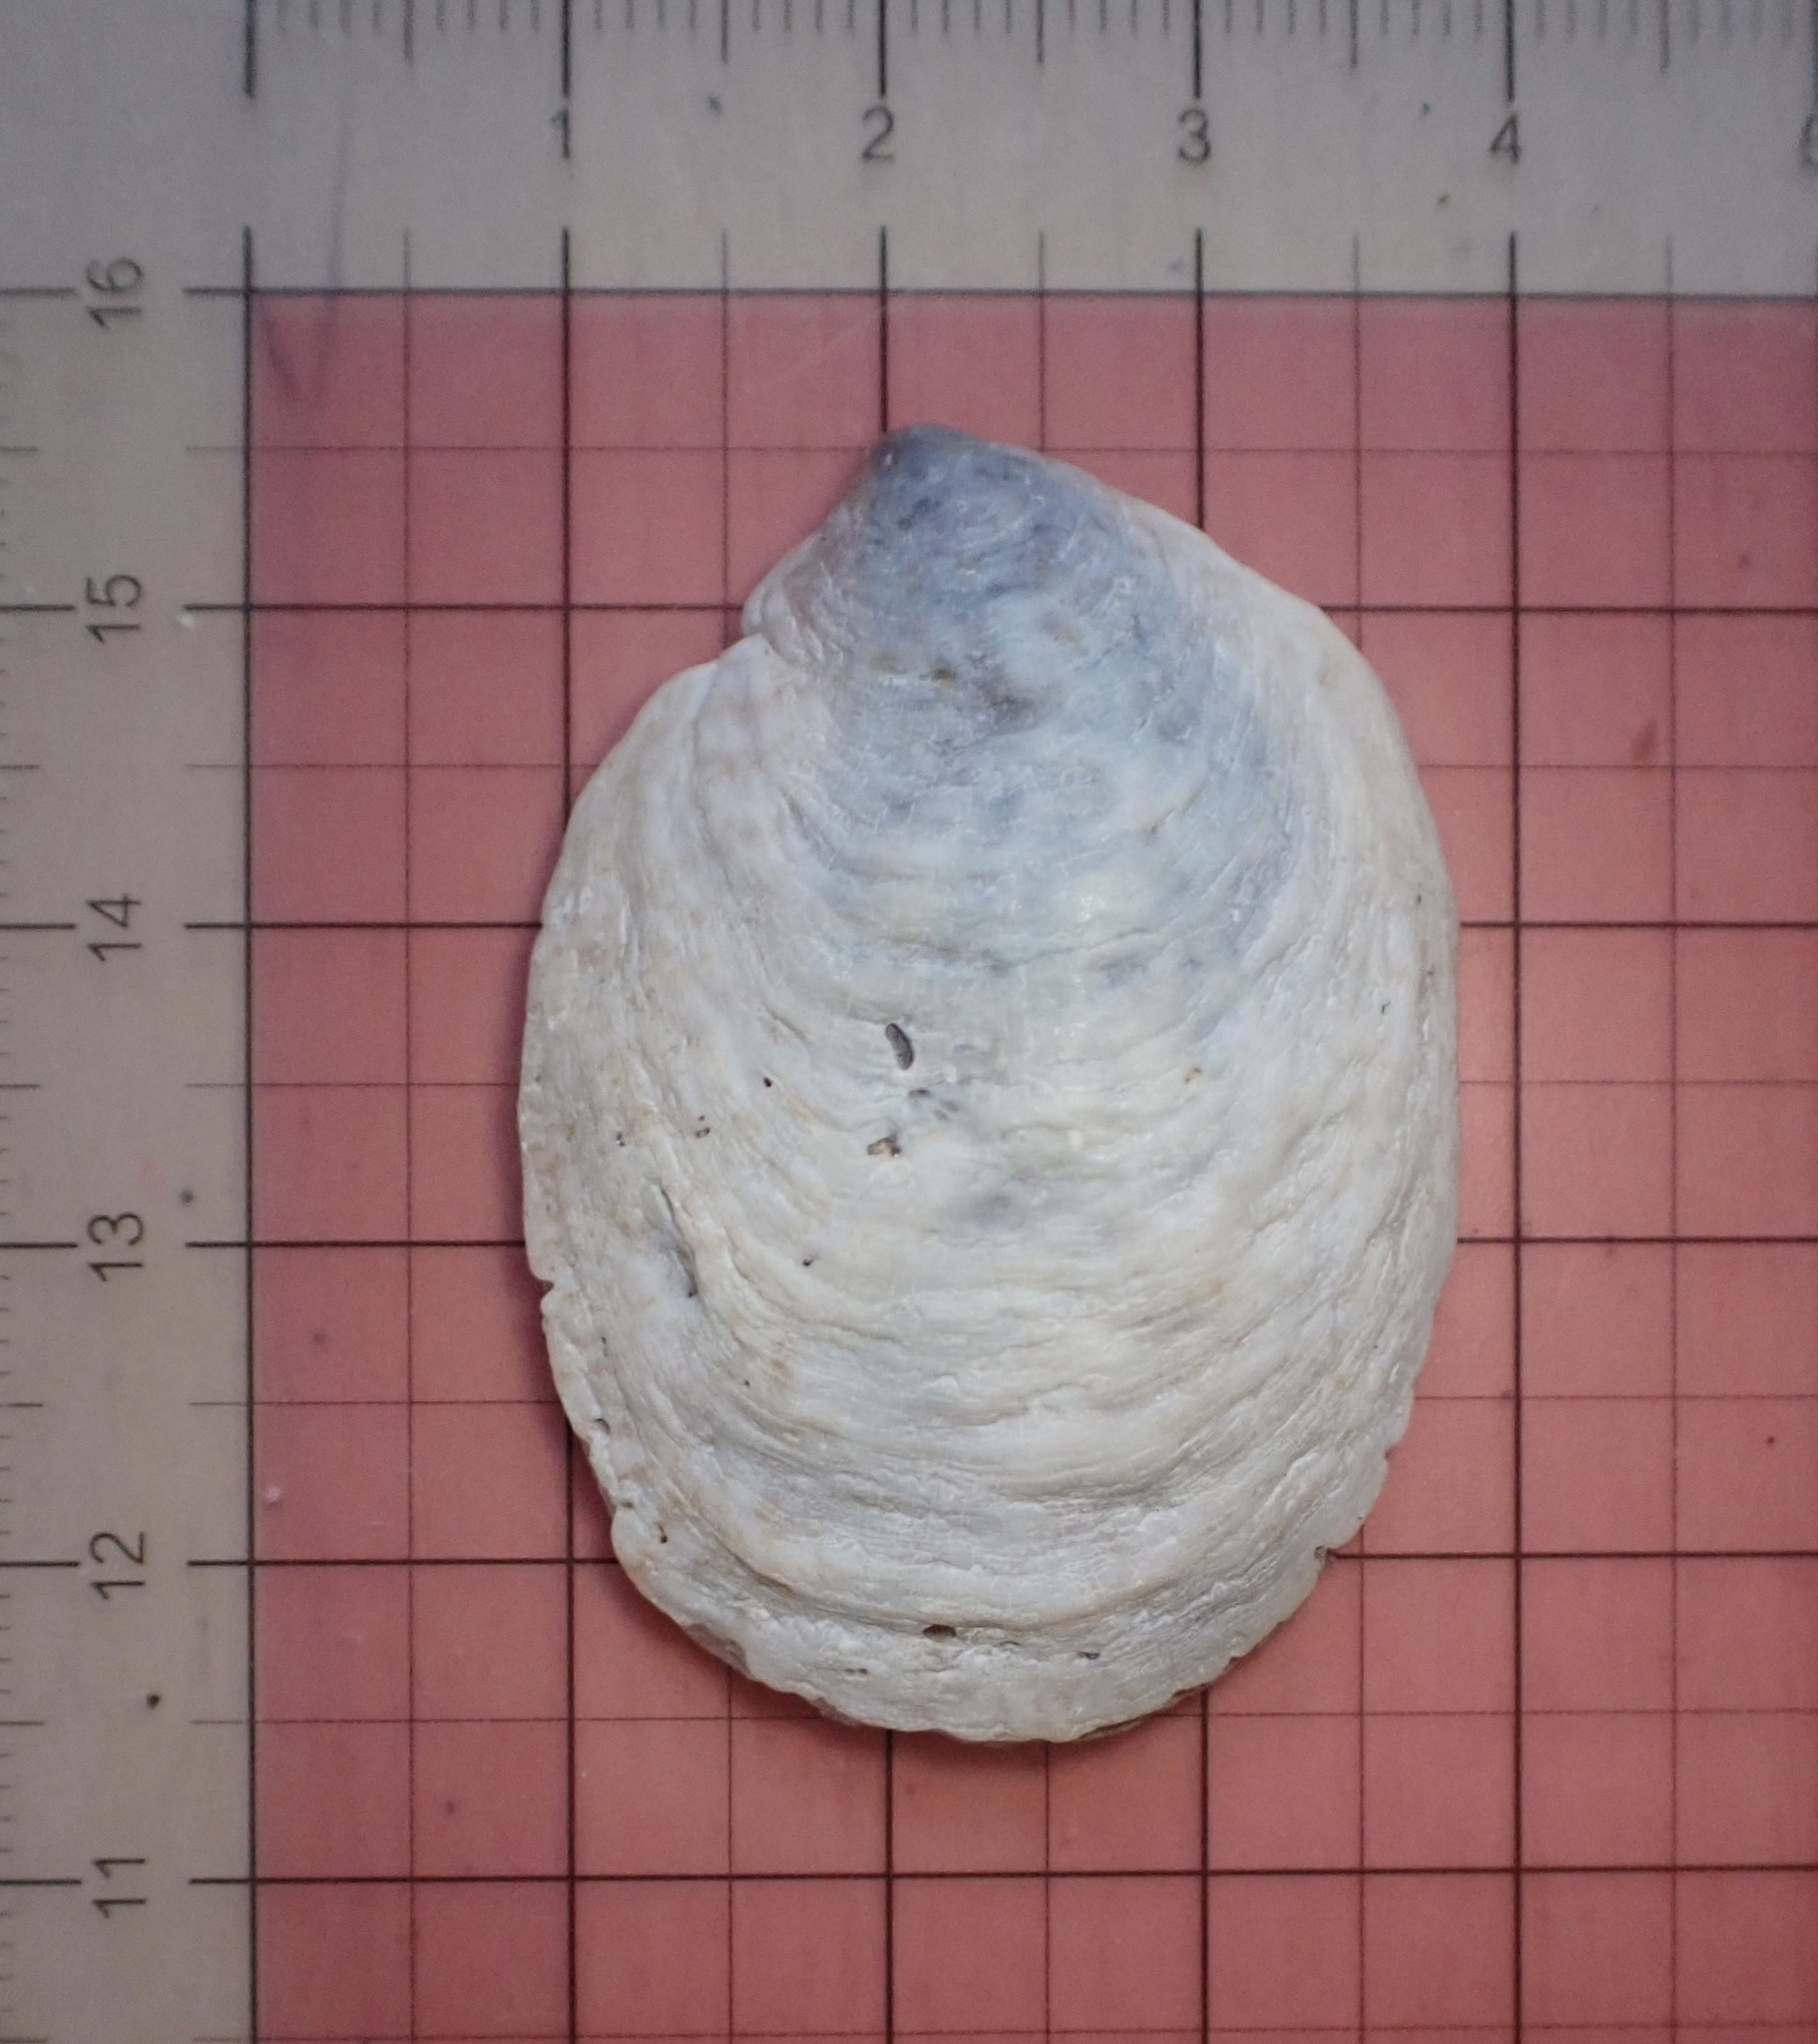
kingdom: Animalia
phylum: Mollusca
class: Gastropoda
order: Littorinimorpha
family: Calyptraeidae
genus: Crepidula
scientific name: Crepidula onyx
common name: Onyx slippersnail
